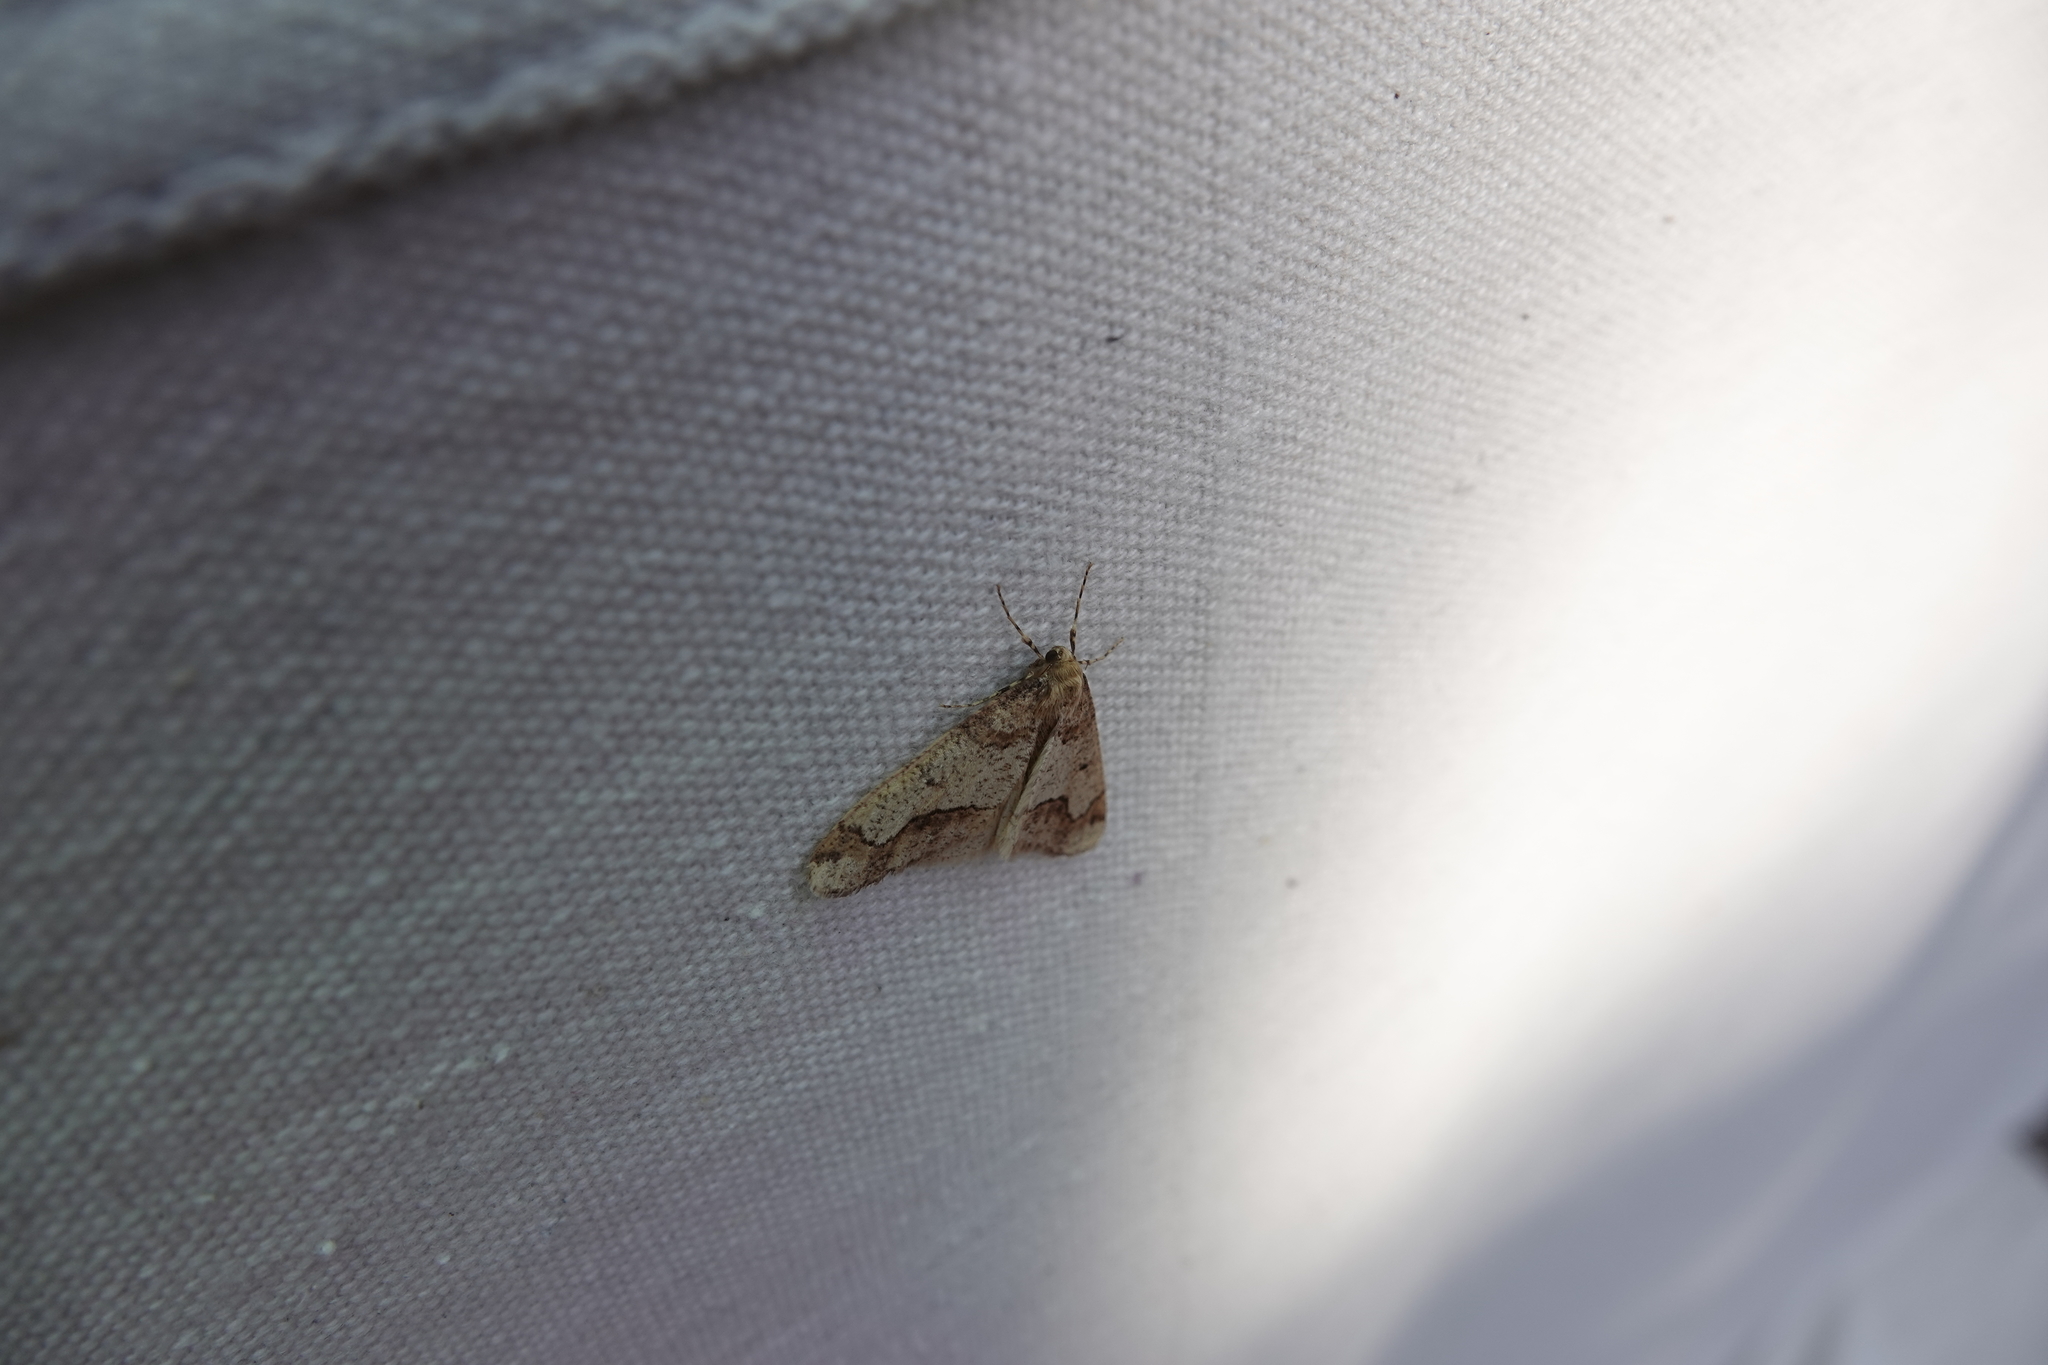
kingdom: Animalia
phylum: Arthropoda
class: Insecta
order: Lepidoptera
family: Geometridae
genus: Erannis
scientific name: Erannis tiliaria
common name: Linden looper
